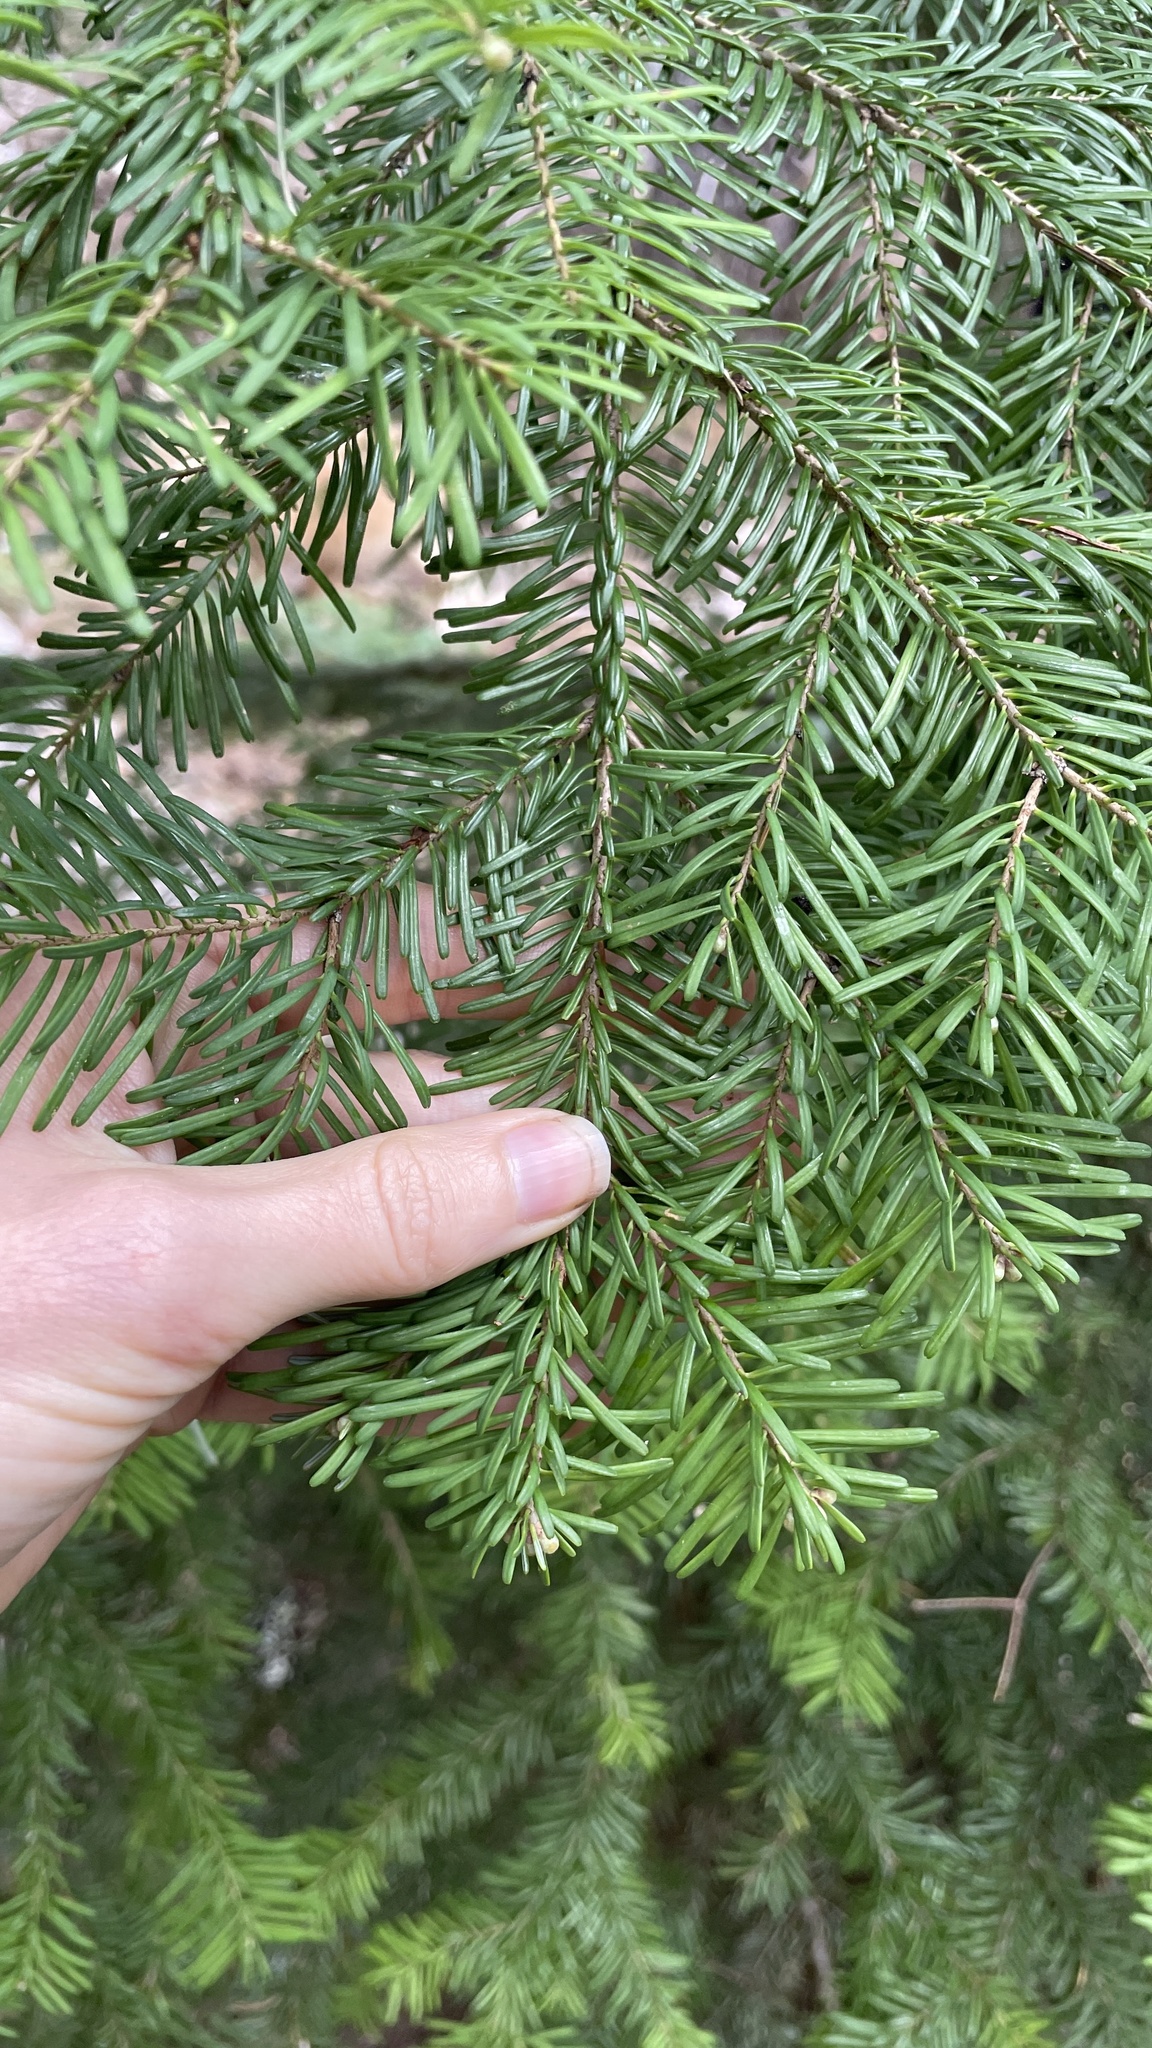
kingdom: Plantae
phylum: Tracheophyta
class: Pinopsida
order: Pinales
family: Pinaceae
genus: Abies
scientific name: Abies amabilis
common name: Pacific silver fir
